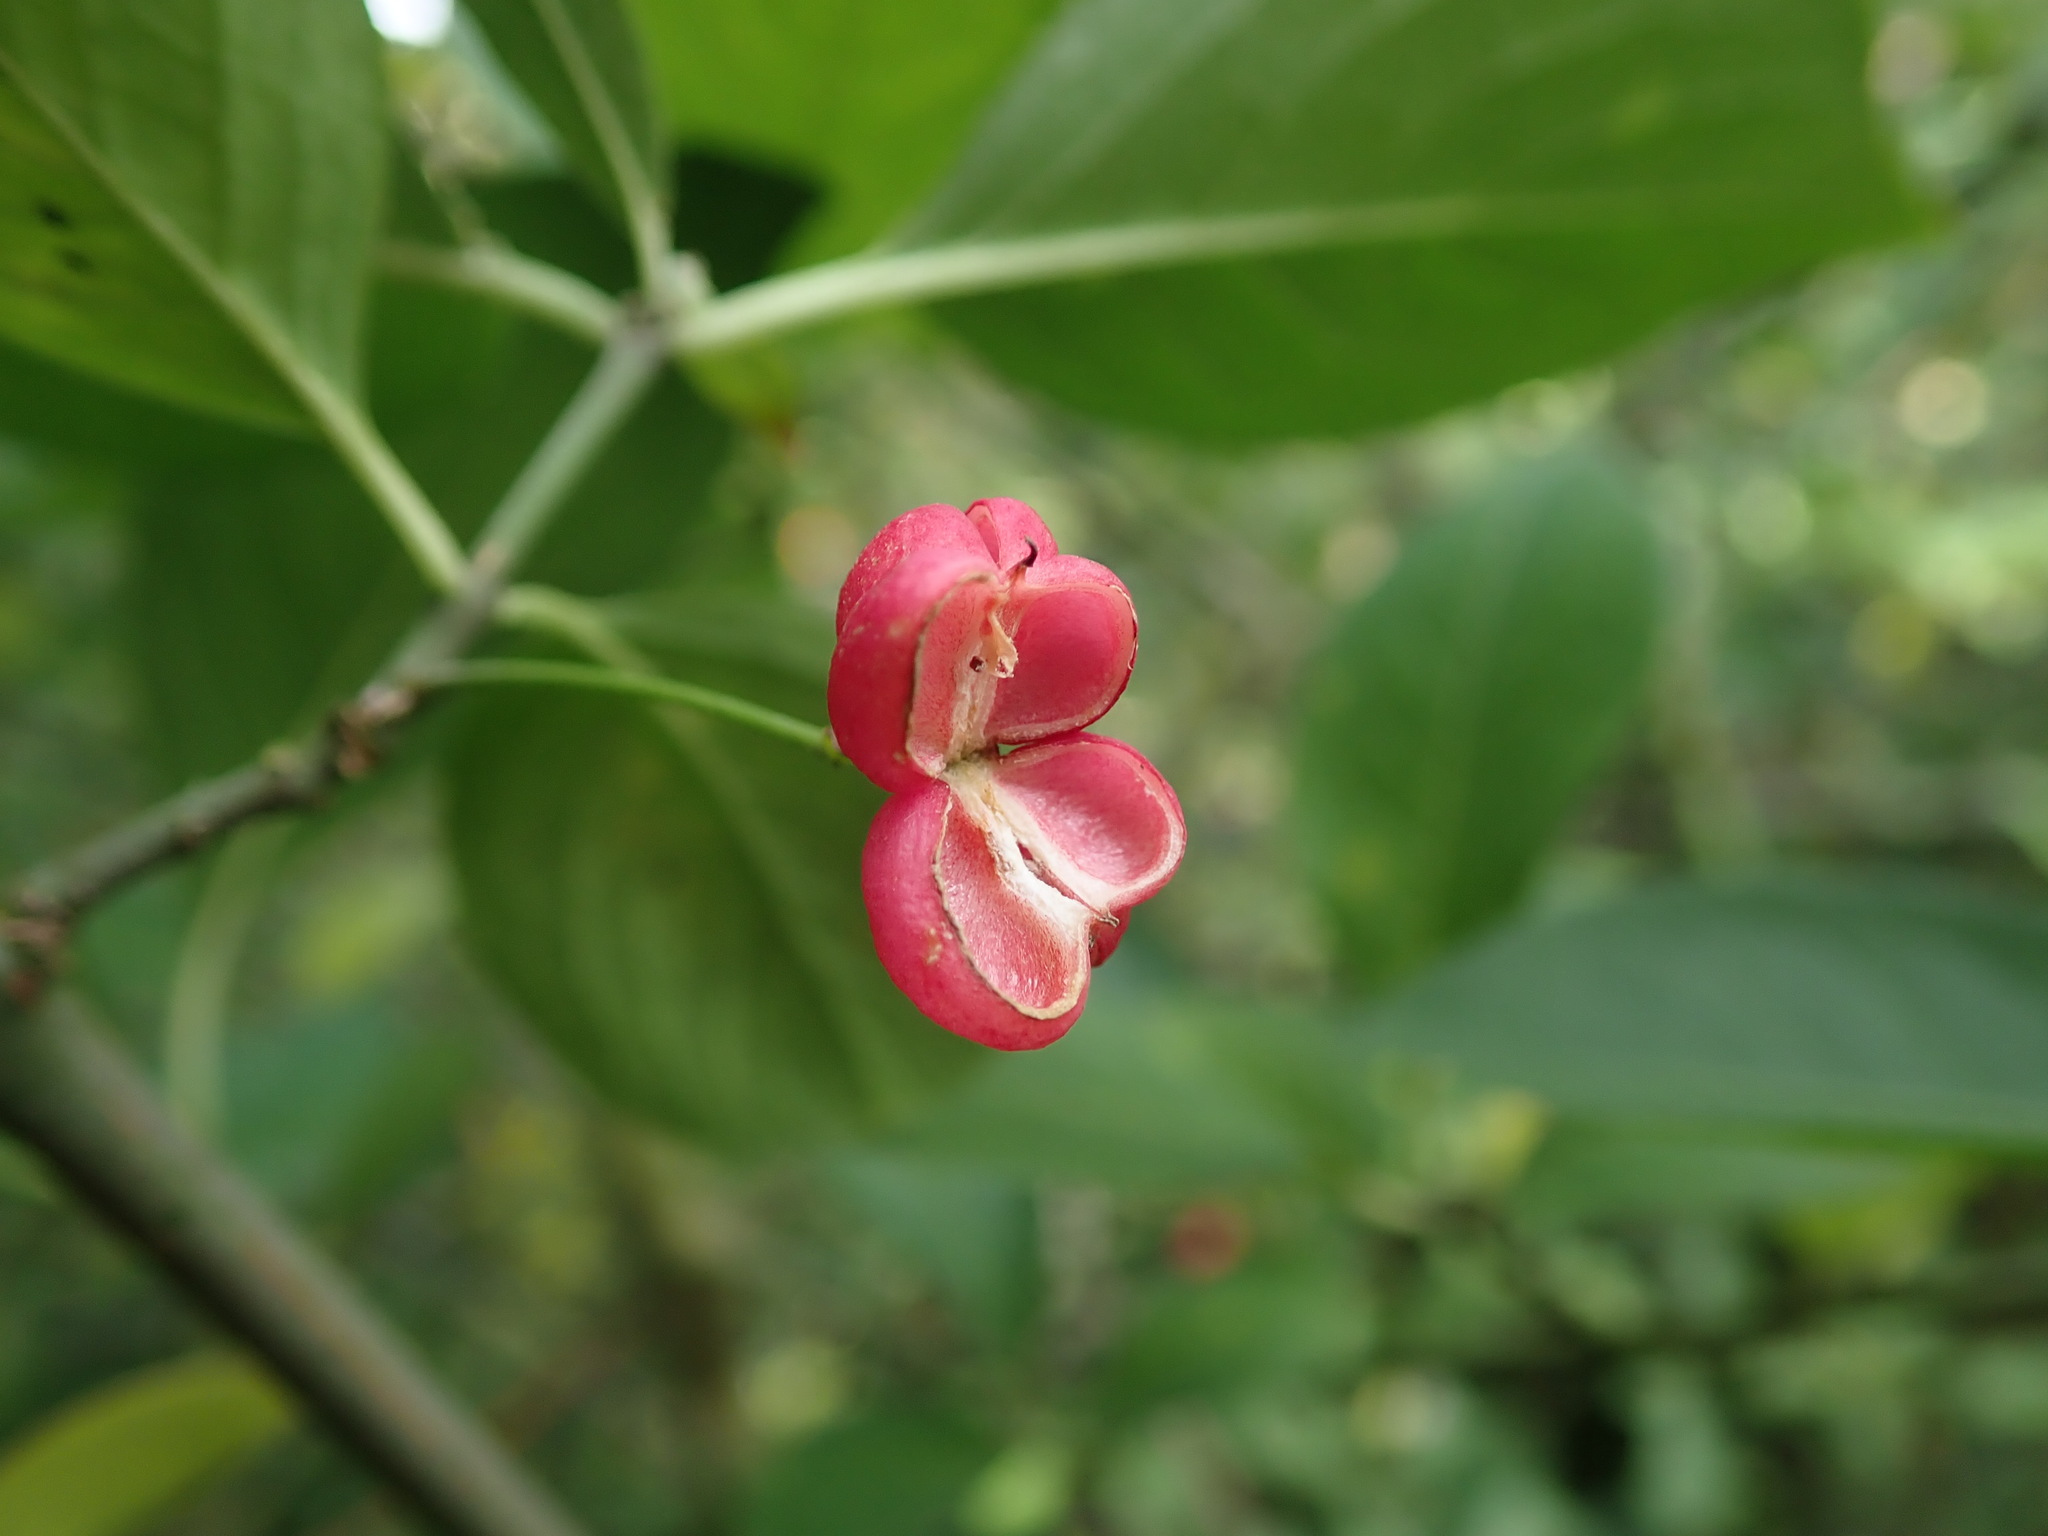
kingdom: Plantae
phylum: Tracheophyta
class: Magnoliopsida
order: Celastrales
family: Celastraceae
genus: Euonymus
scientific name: Euonymus europaeus
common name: Spindle
